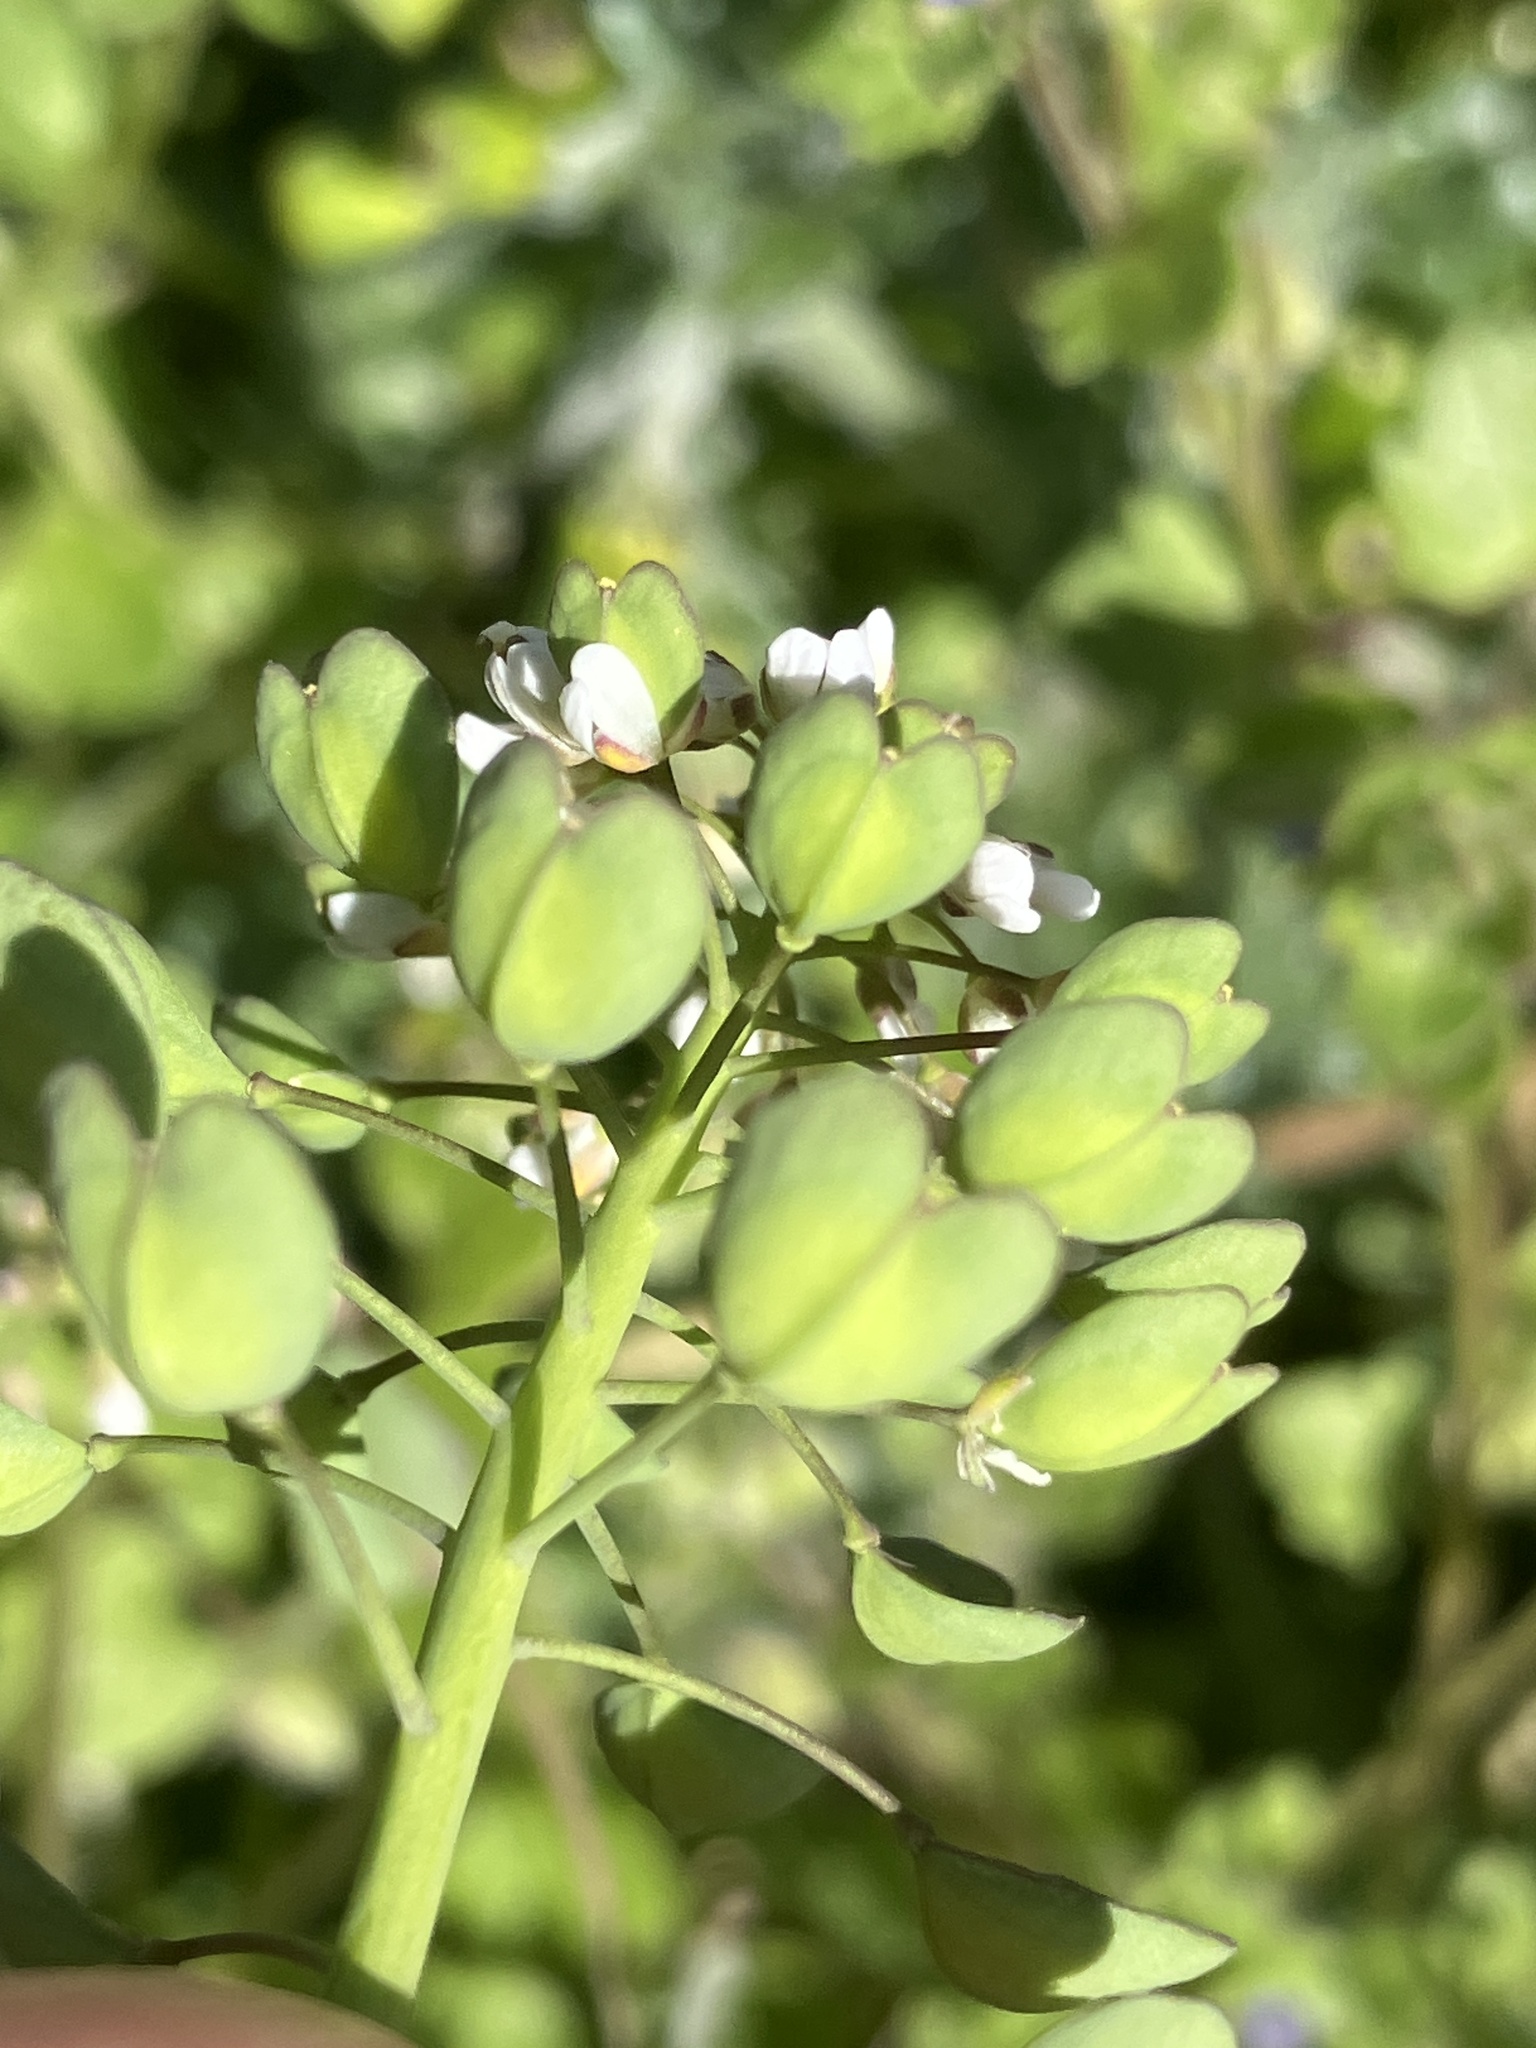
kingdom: Plantae
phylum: Tracheophyta
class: Magnoliopsida
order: Brassicales
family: Brassicaceae
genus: Noccaea
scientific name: Noccaea perfoliata
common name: Perfoliate pennycress
